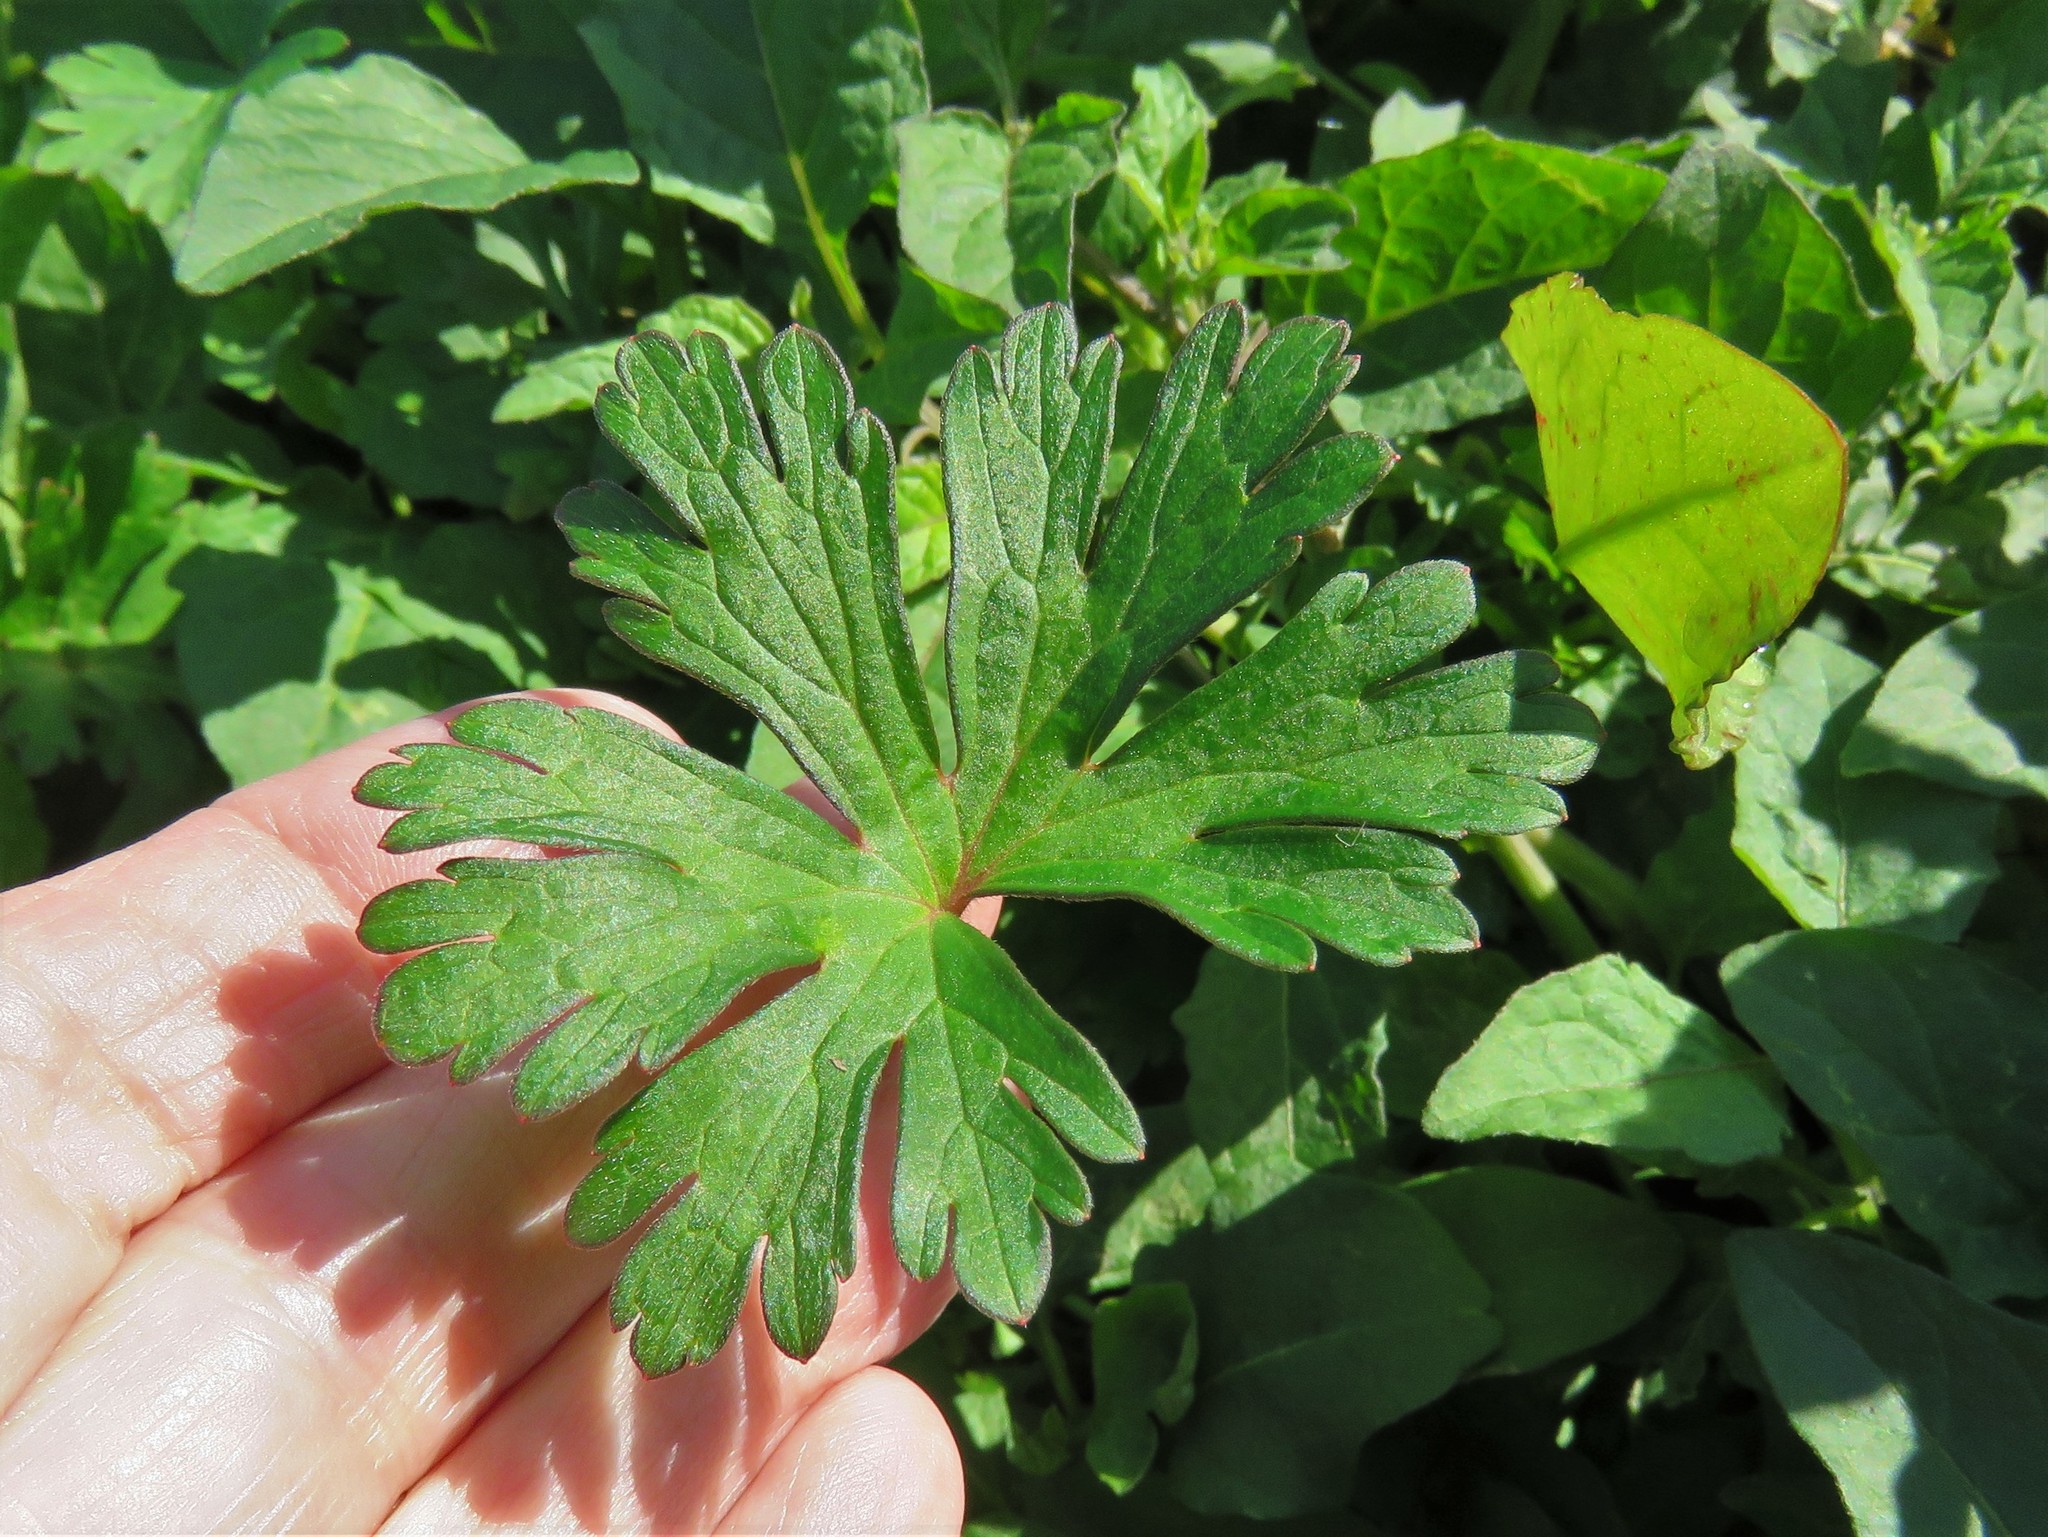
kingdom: Plantae
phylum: Tracheophyta
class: Magnoliopsida
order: Geraniales
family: Geraniaceae
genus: Geranium
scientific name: Geranium carolinianum
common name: Carolina crane's-bill
